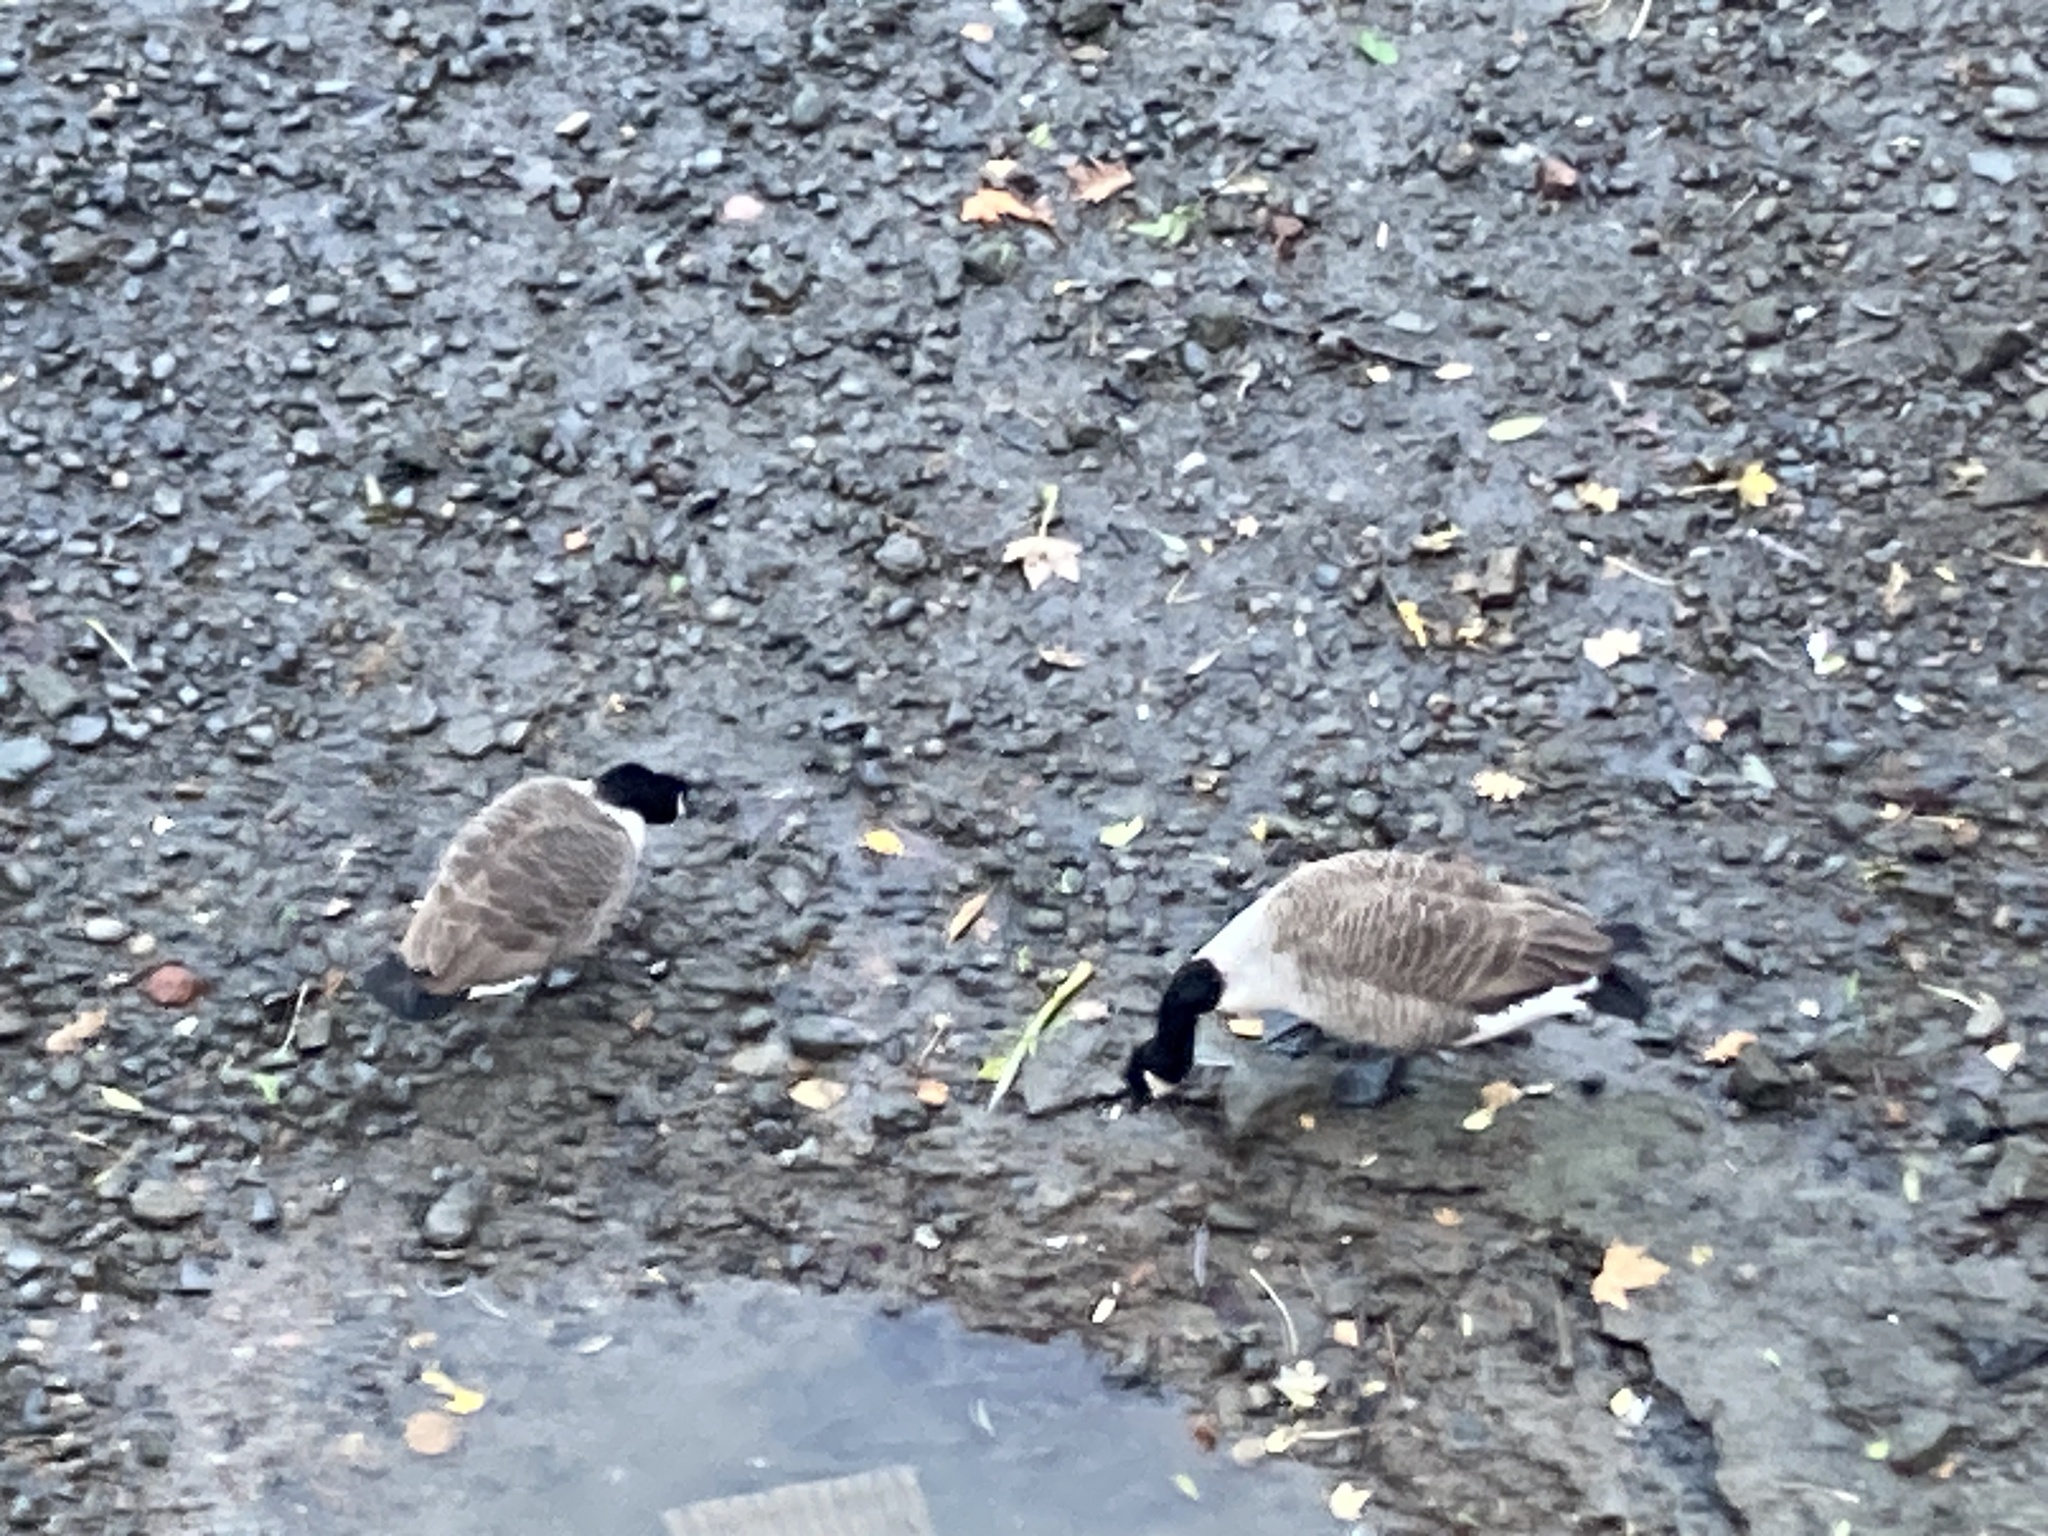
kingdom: Animalia
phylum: Chordata
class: Aves
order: Anseriformes
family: Anatidae
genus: Branta
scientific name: Branta canadensis
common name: Canada goose
